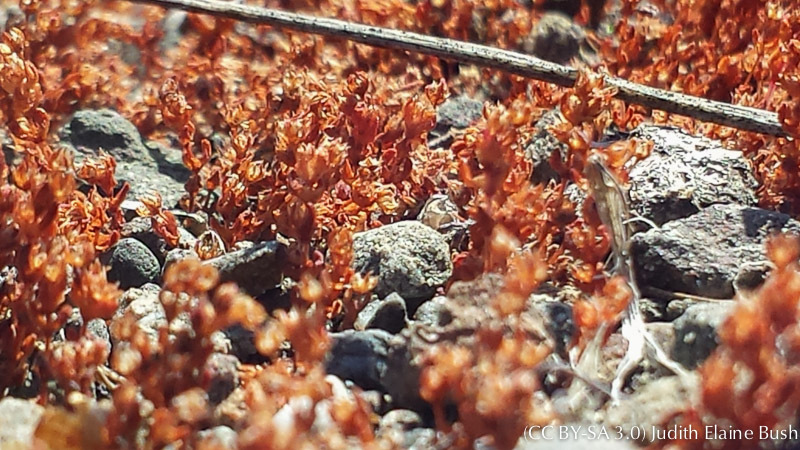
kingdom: Plantae
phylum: Tracheophyta
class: Magnoliopsida
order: Saxifragales
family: Crassulaceae
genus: Crassula
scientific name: Crassula connata
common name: Erect pygmyweed
